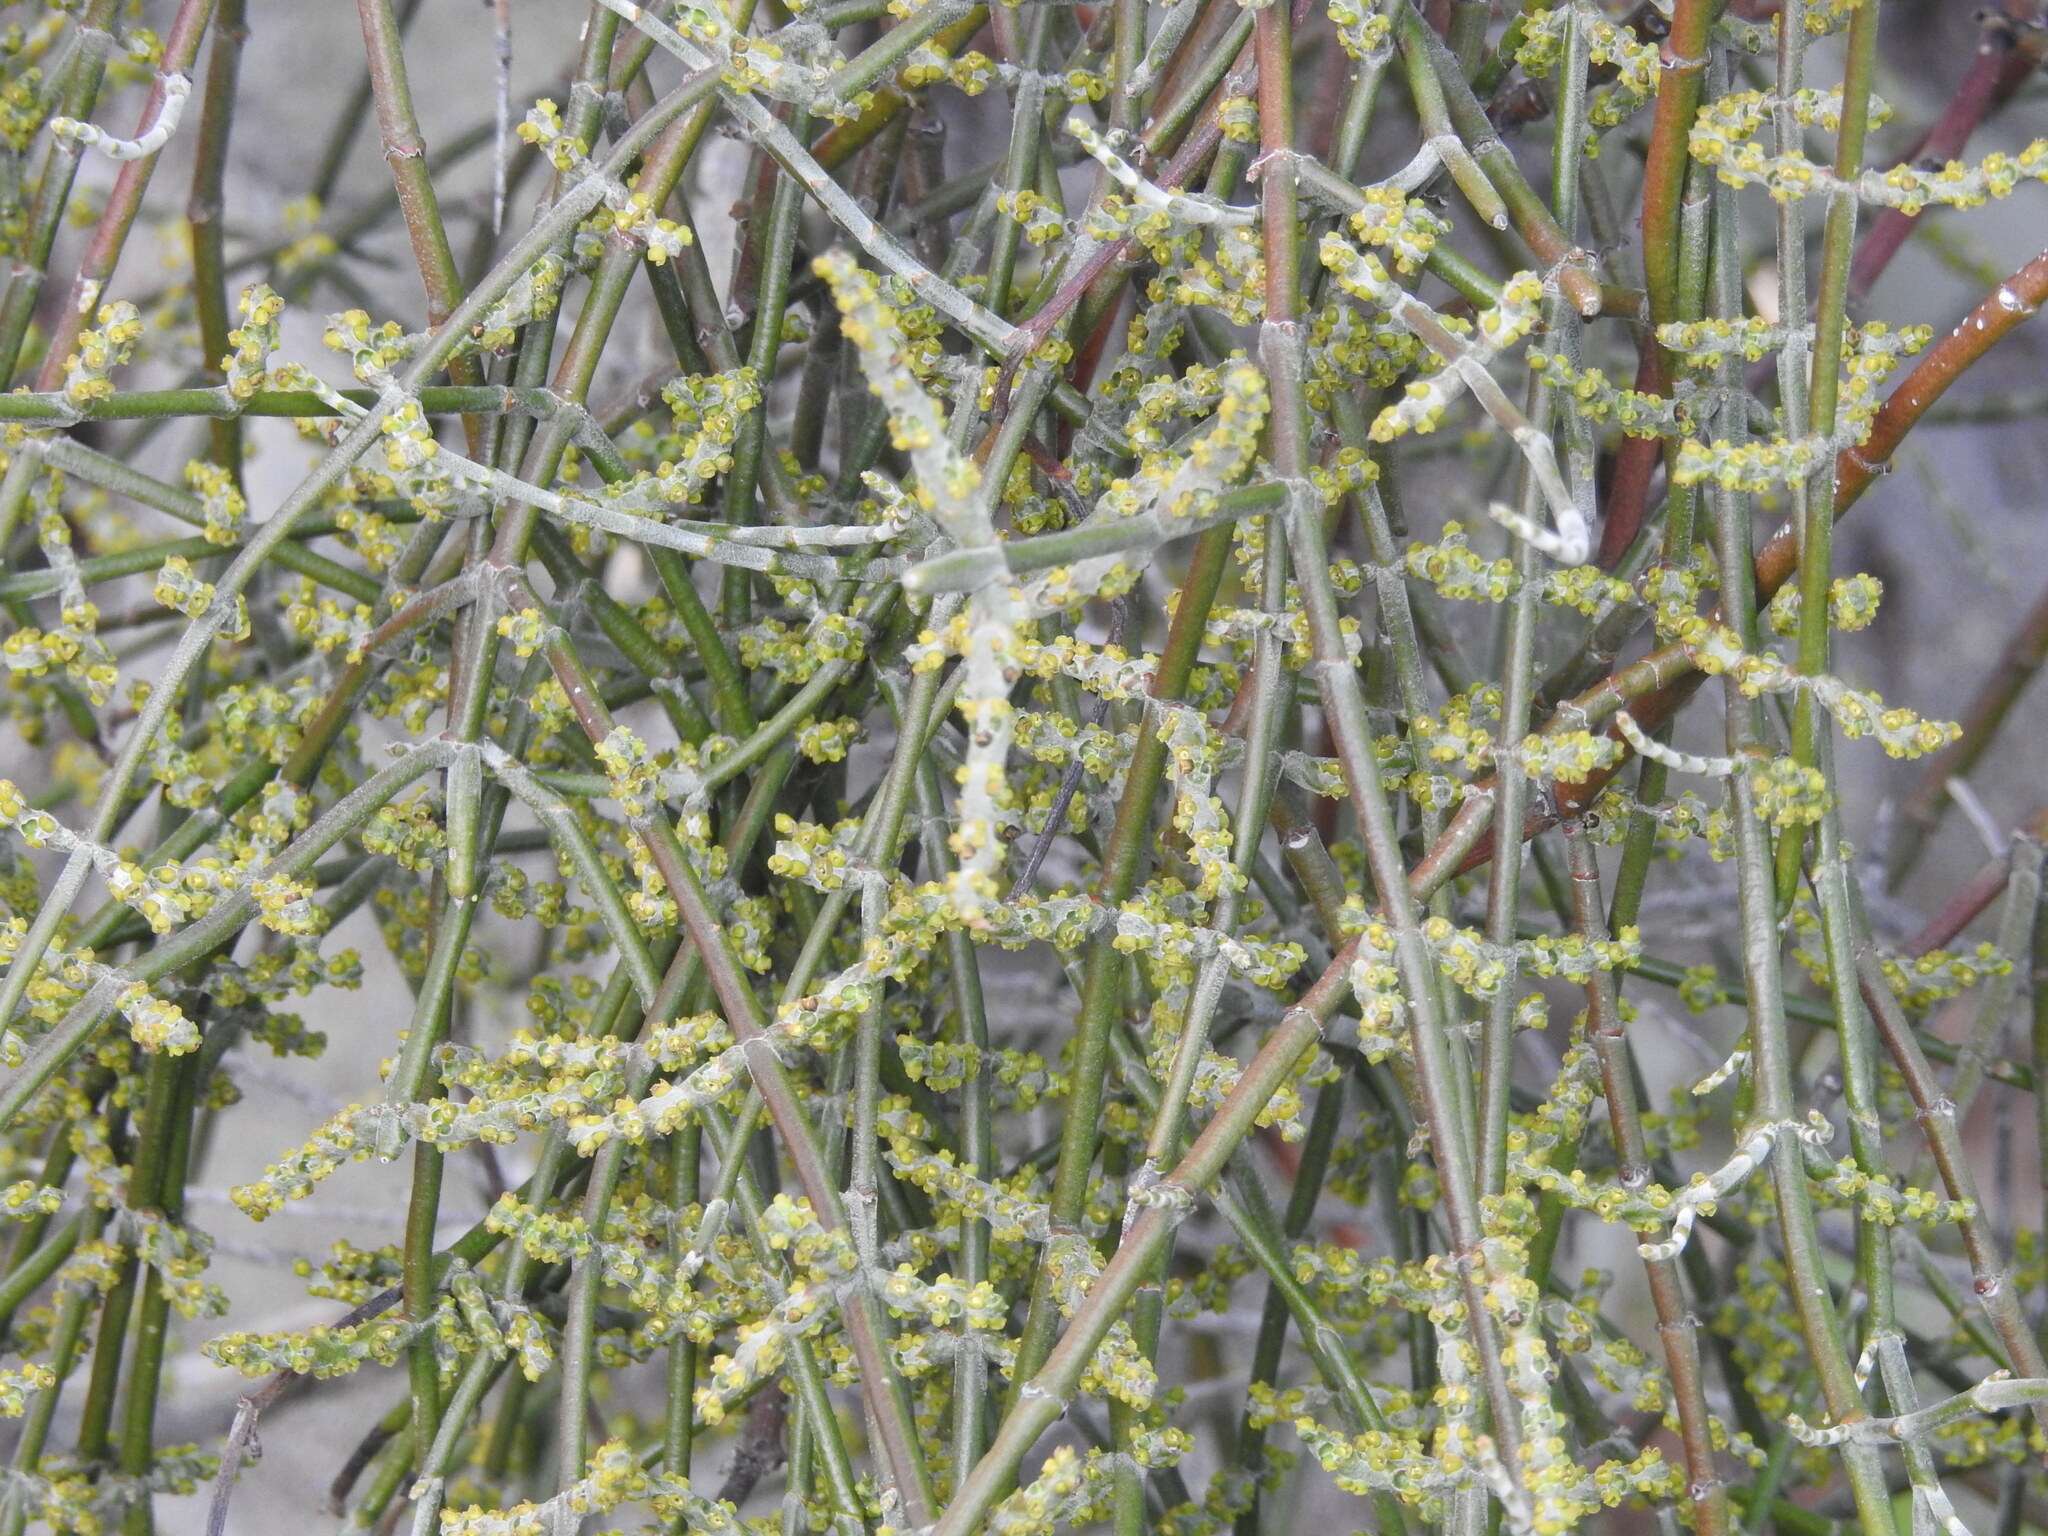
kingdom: Plantae
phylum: Tracheophyta
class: Magnoliopsida
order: Santalales
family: Viscaceae
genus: Phoradendron
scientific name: Phoradendron californicum
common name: Acacia mistletoe
